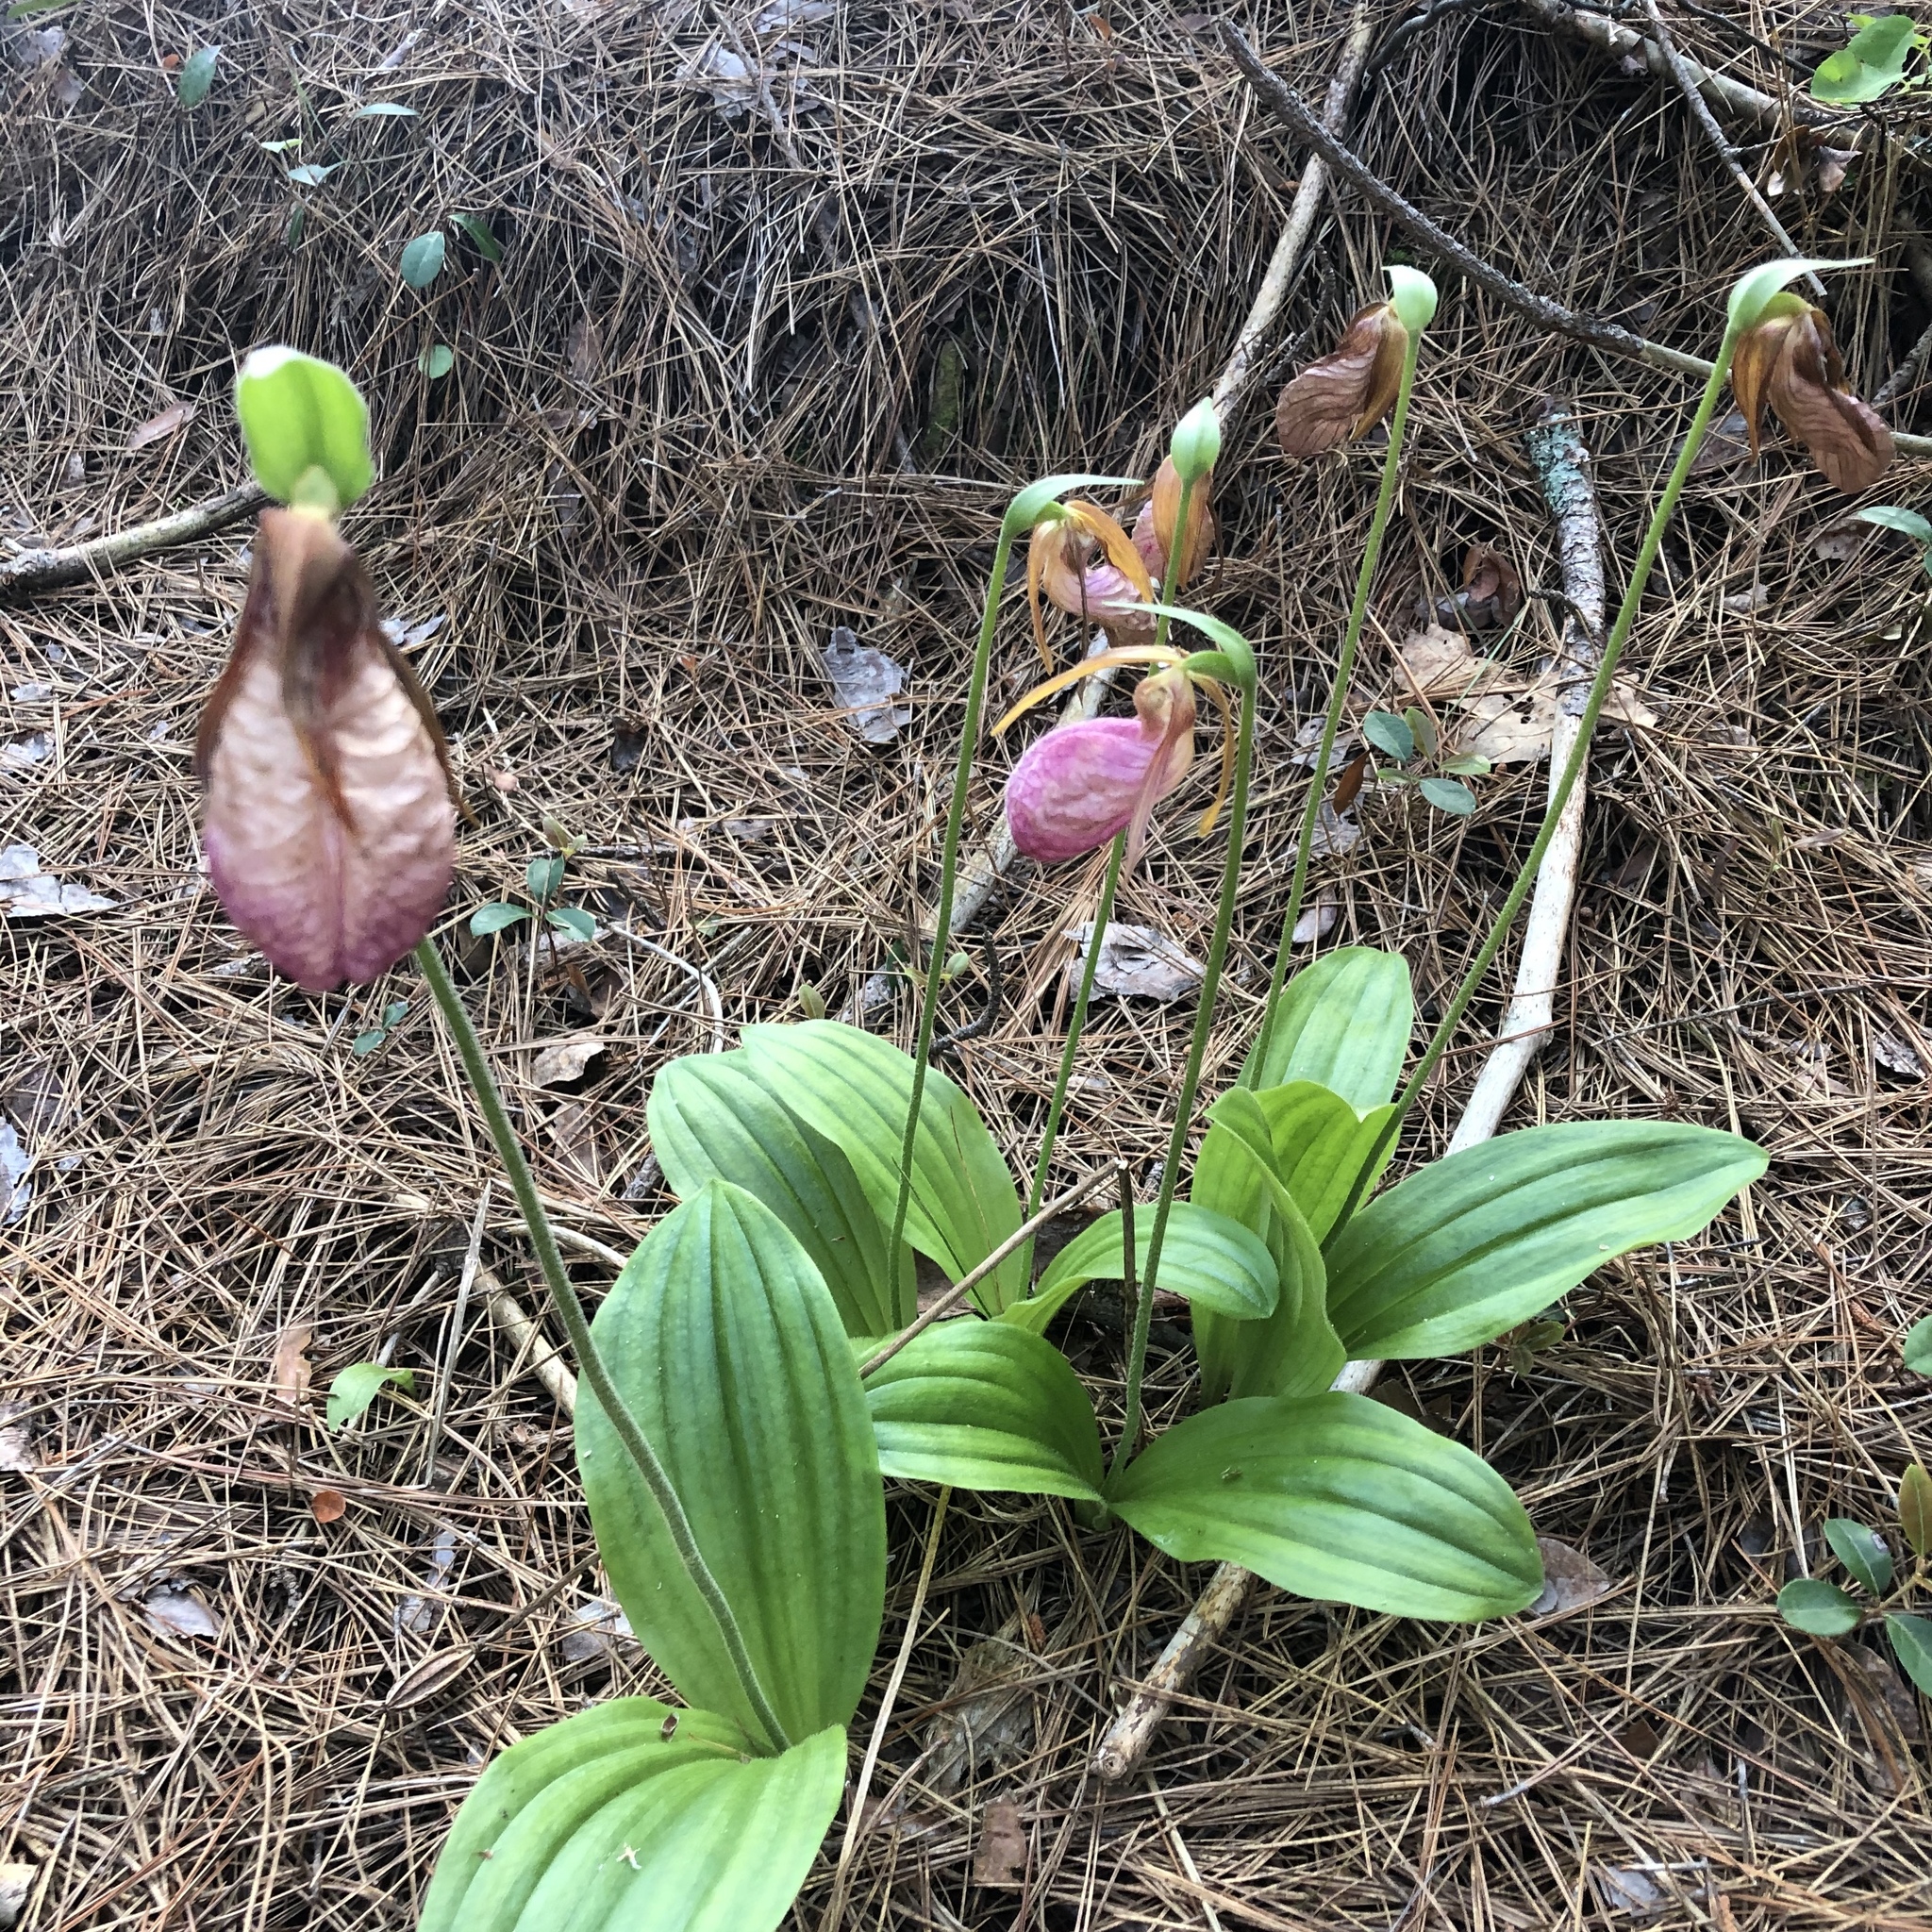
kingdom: Plantae
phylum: Tracheophyta
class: Liliopsida
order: Asparagales
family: Orchidaceae
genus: Cypripedium
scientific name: Cypripedium acaule
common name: Pink lady's-slipper
